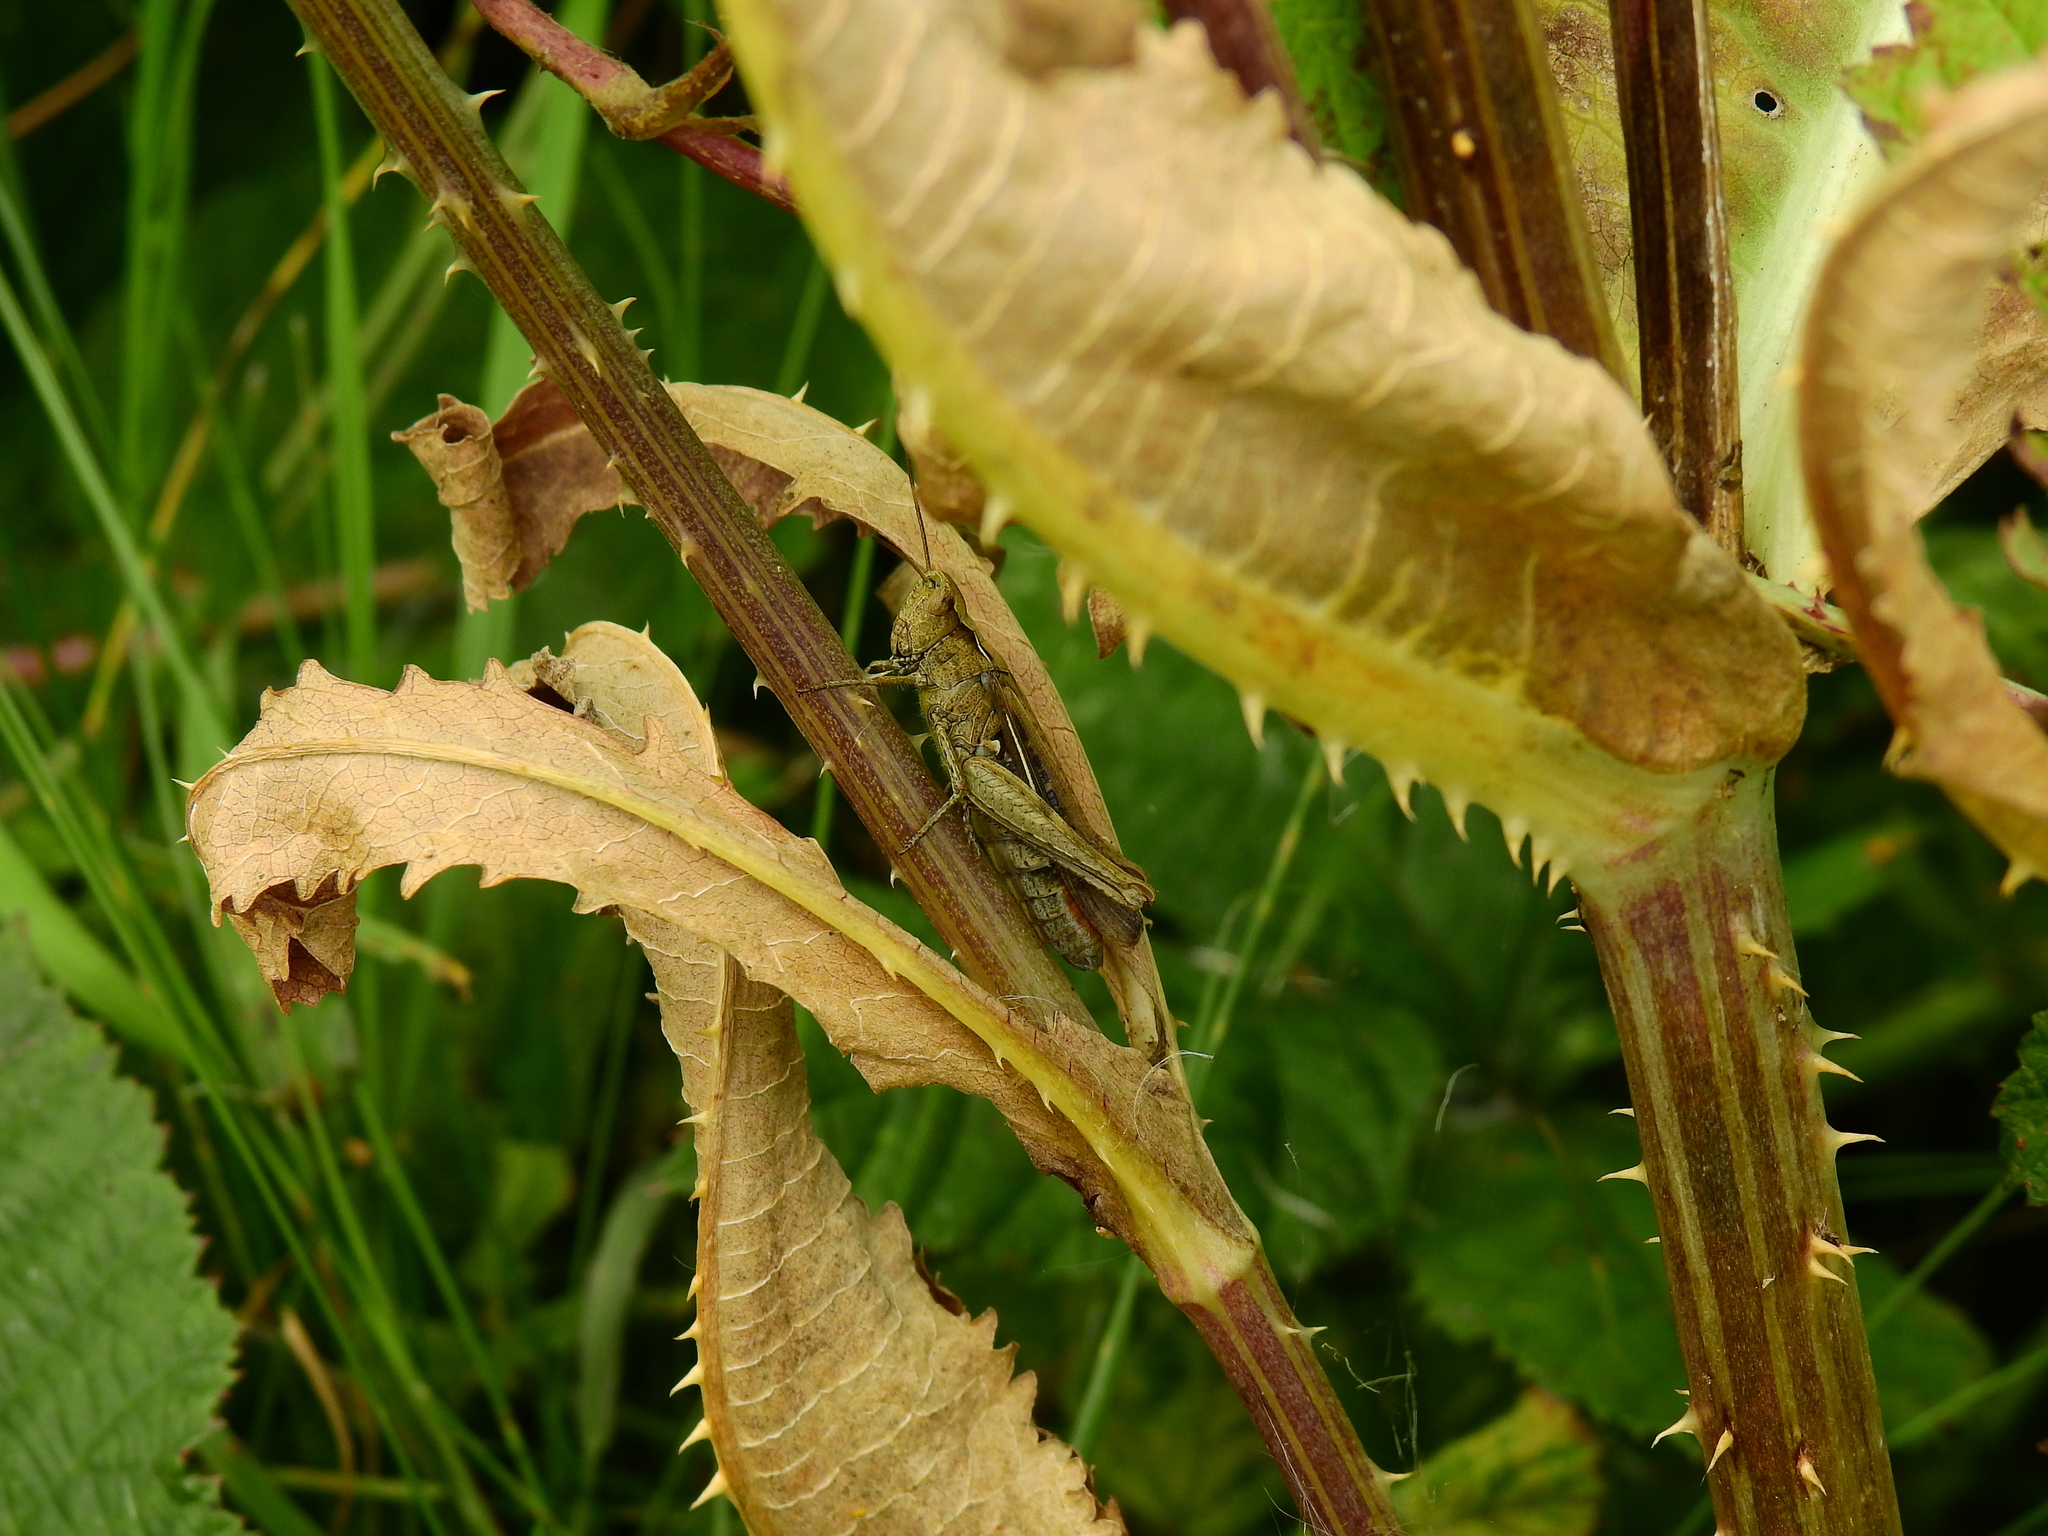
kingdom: Animalia
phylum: Arthropoda
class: Insecta
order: Orthoptera
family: Acrididae
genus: Chorthippus
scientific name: Chorthippus brunneus
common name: Field grasshopper
